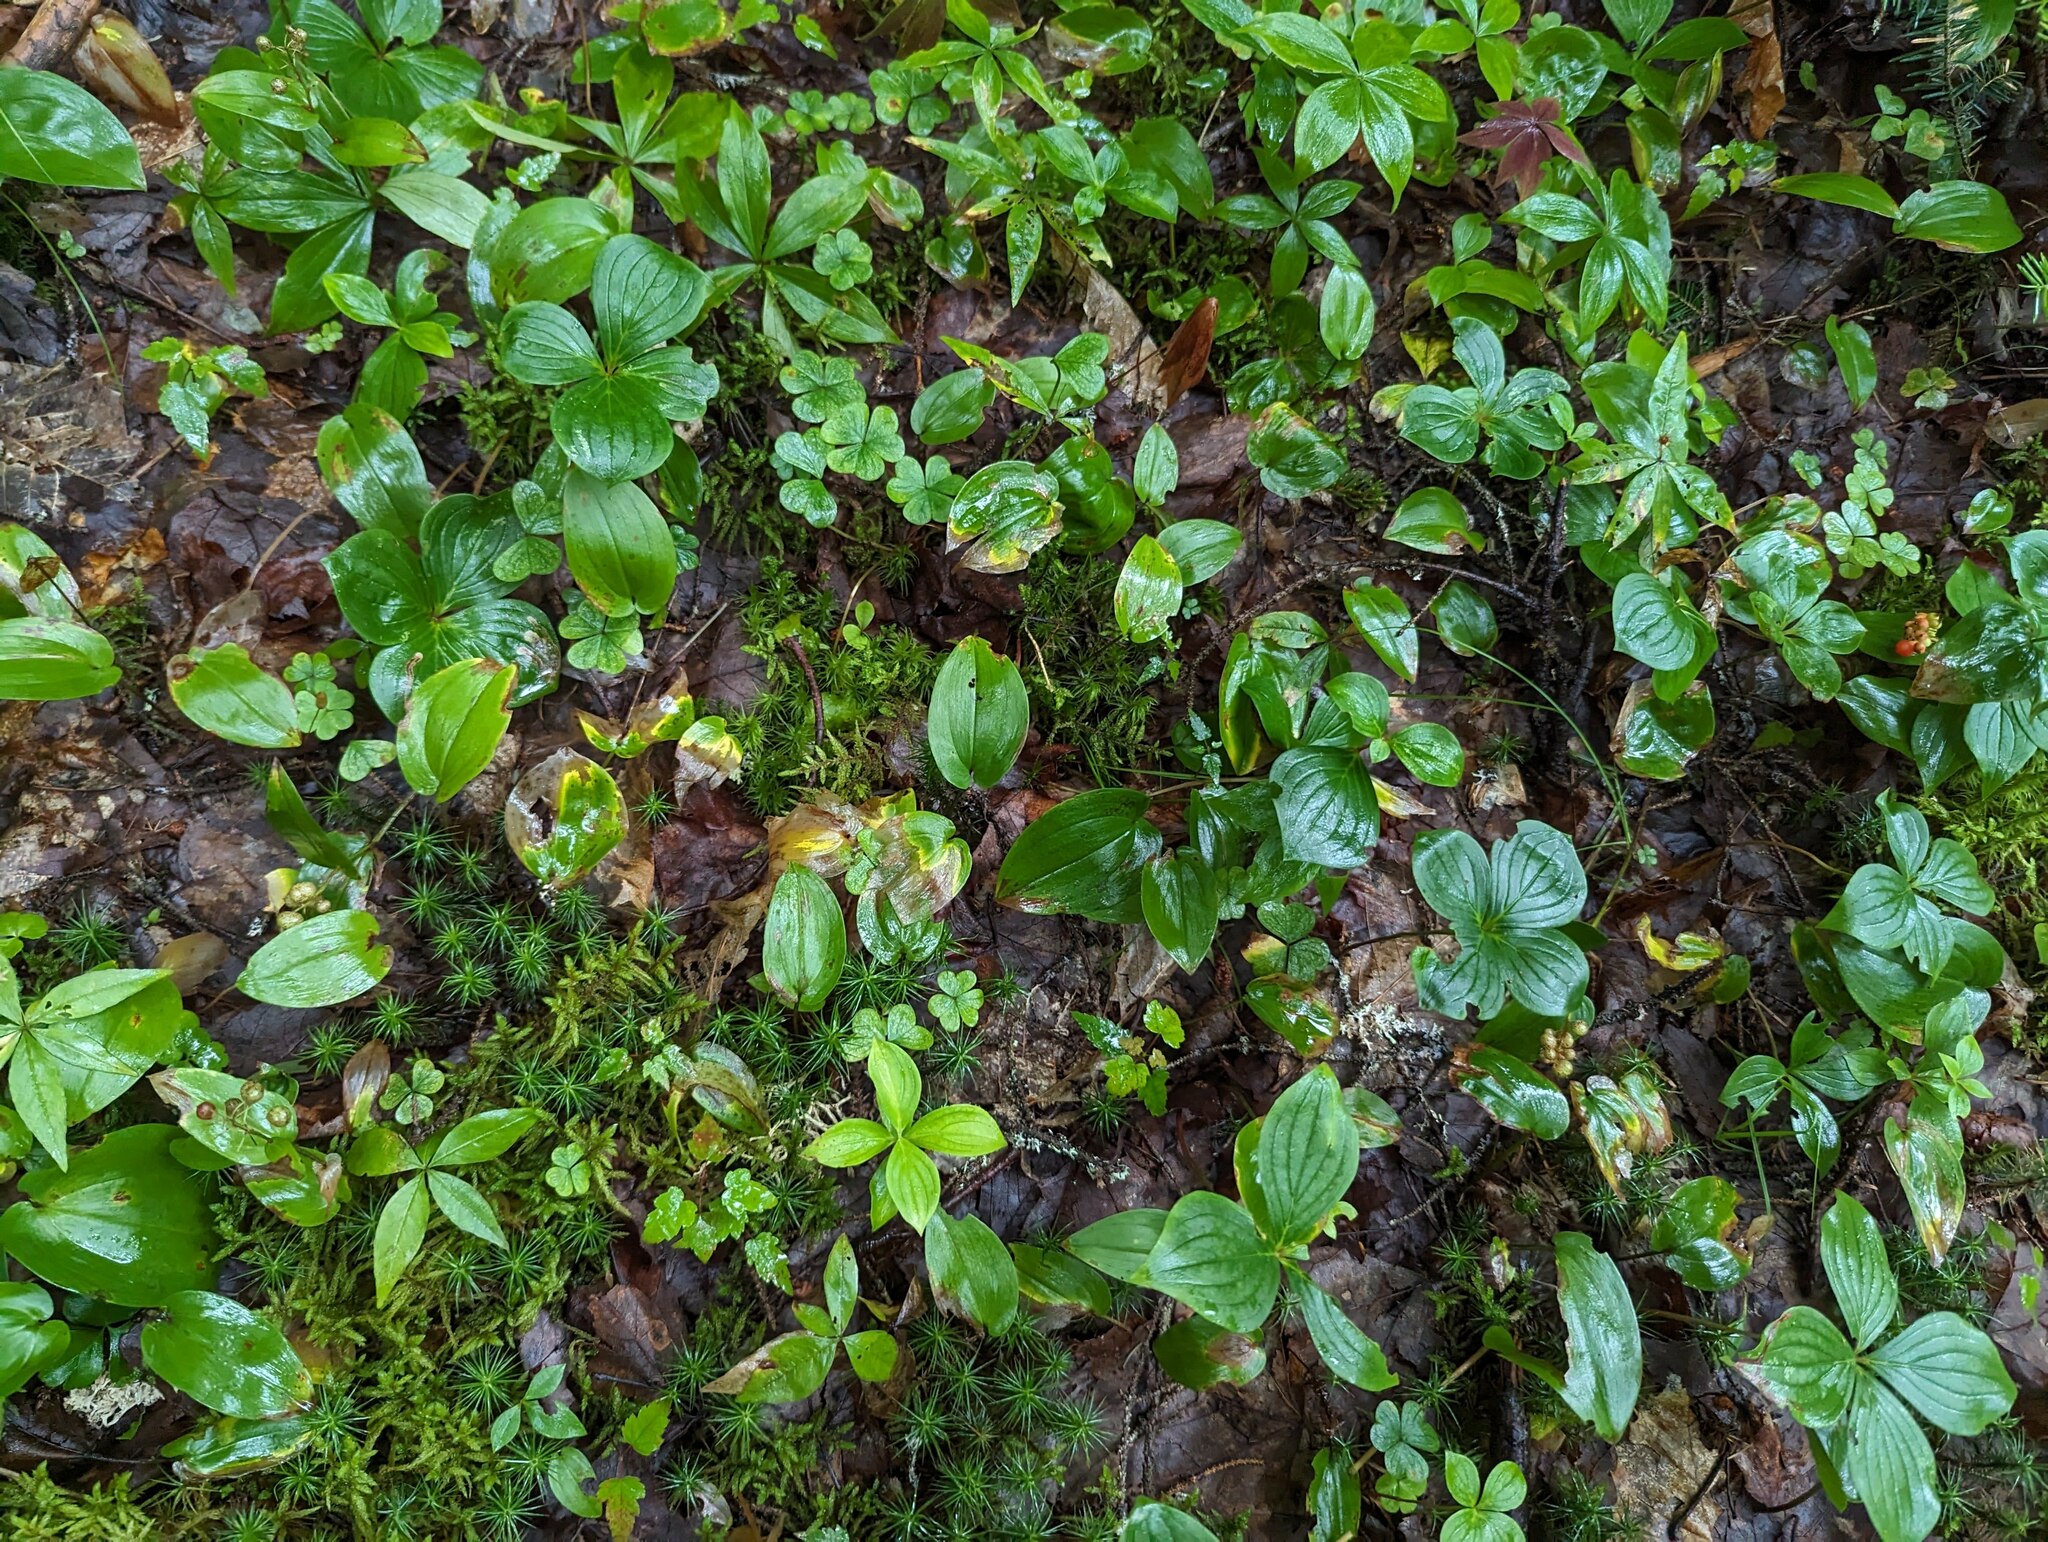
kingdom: Plantae
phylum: Tracheophyta
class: Magnoliopsida
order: Cornales
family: Cornaceae
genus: Cornus
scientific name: Cornus canadensis
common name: Creeping dogwood
